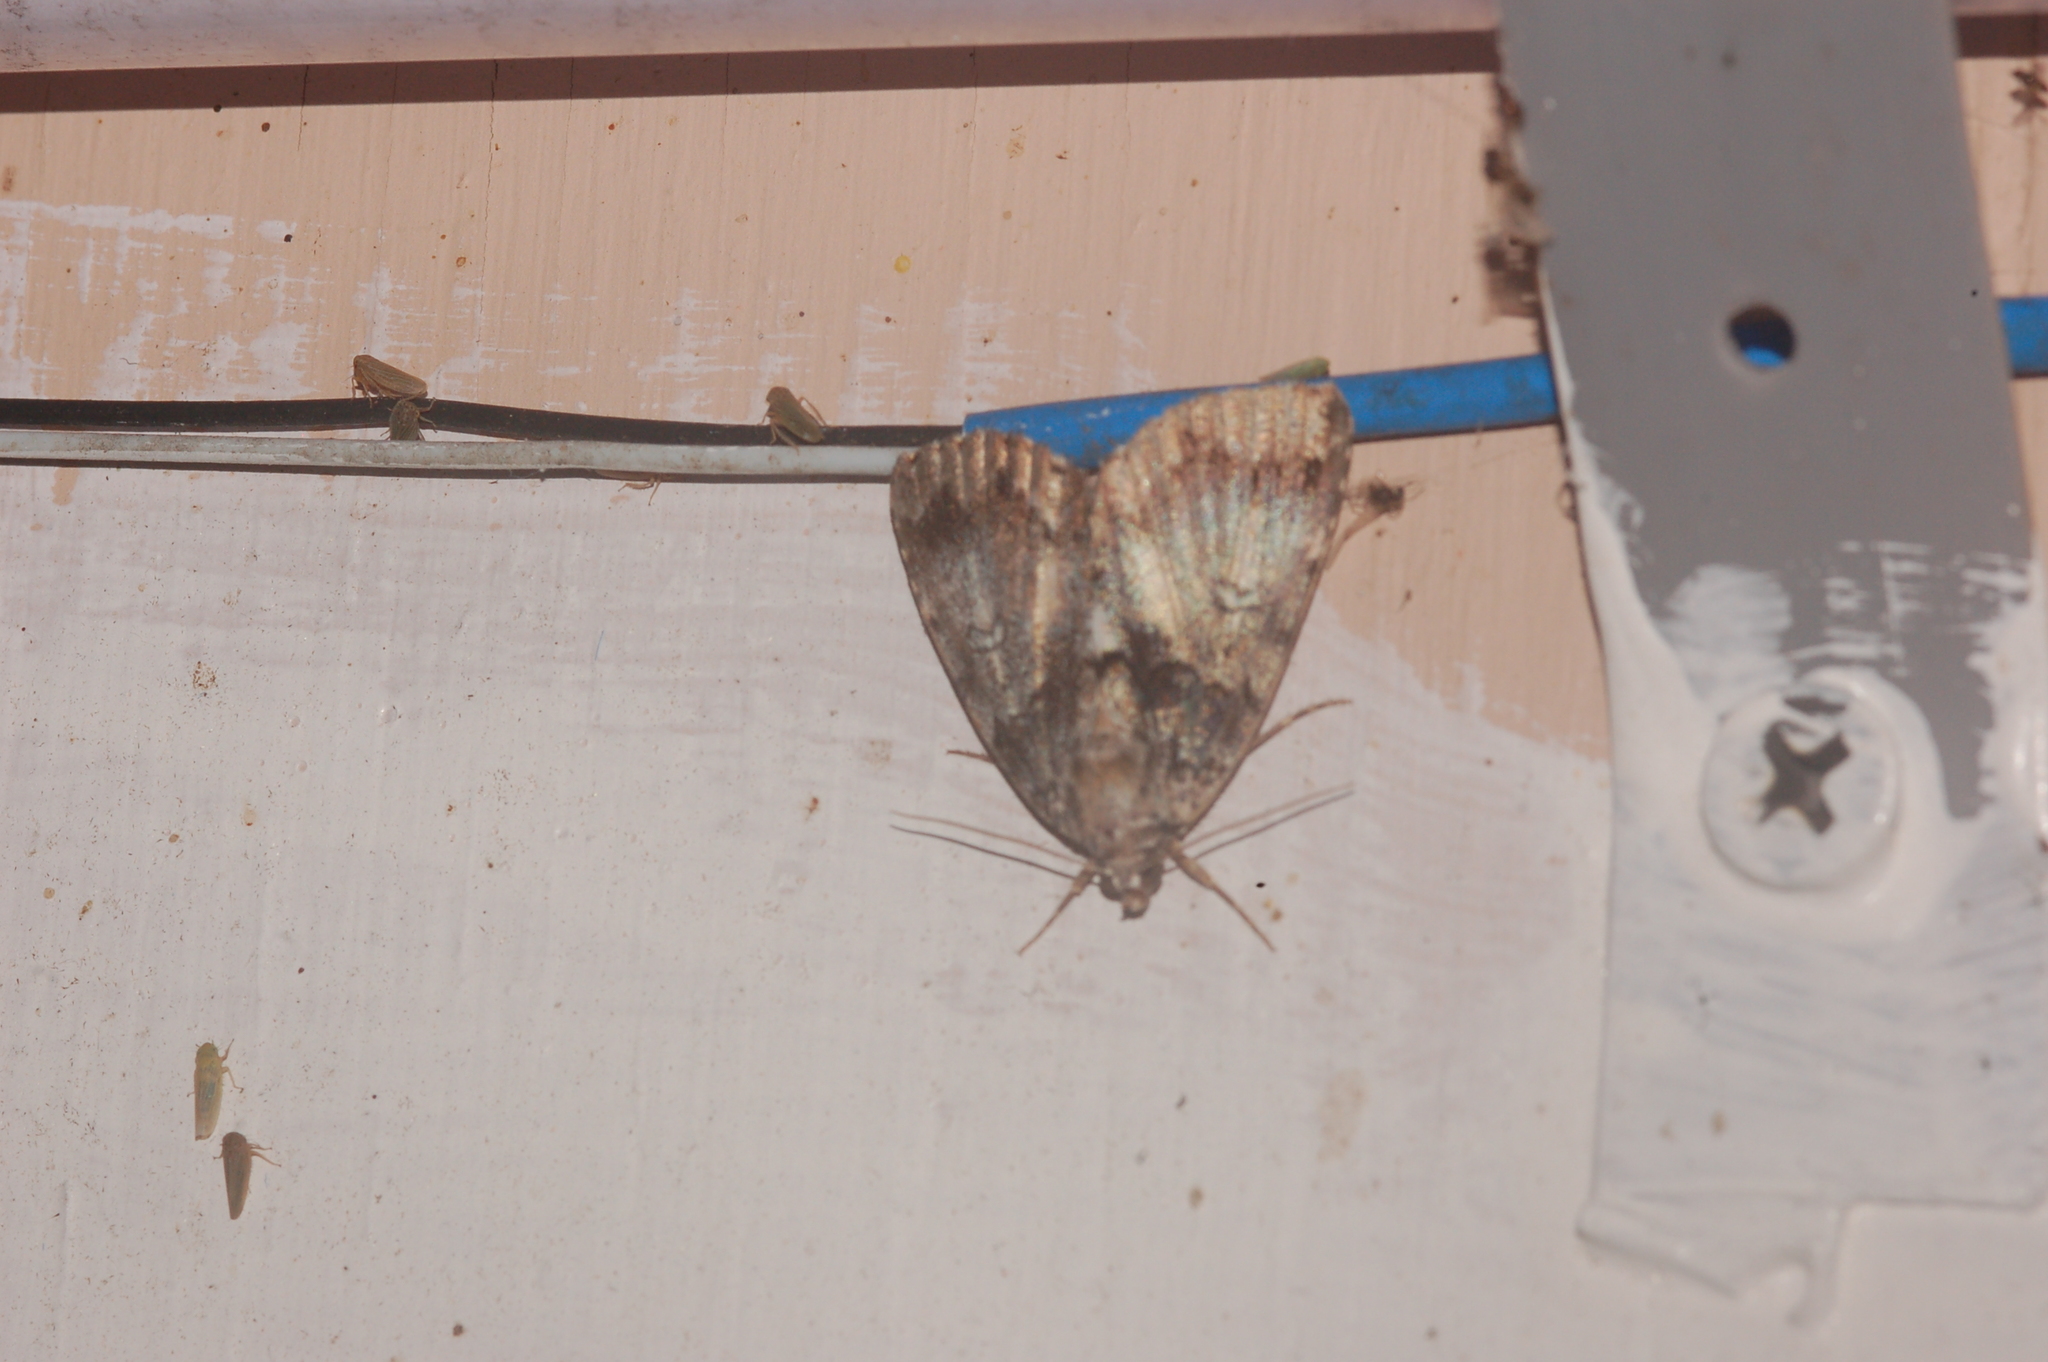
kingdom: Animalia
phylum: Arthropoda
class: Insecta
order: Lepidoptera
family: Erebidae
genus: Allotria
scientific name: Allotria elonympha
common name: False underwing
